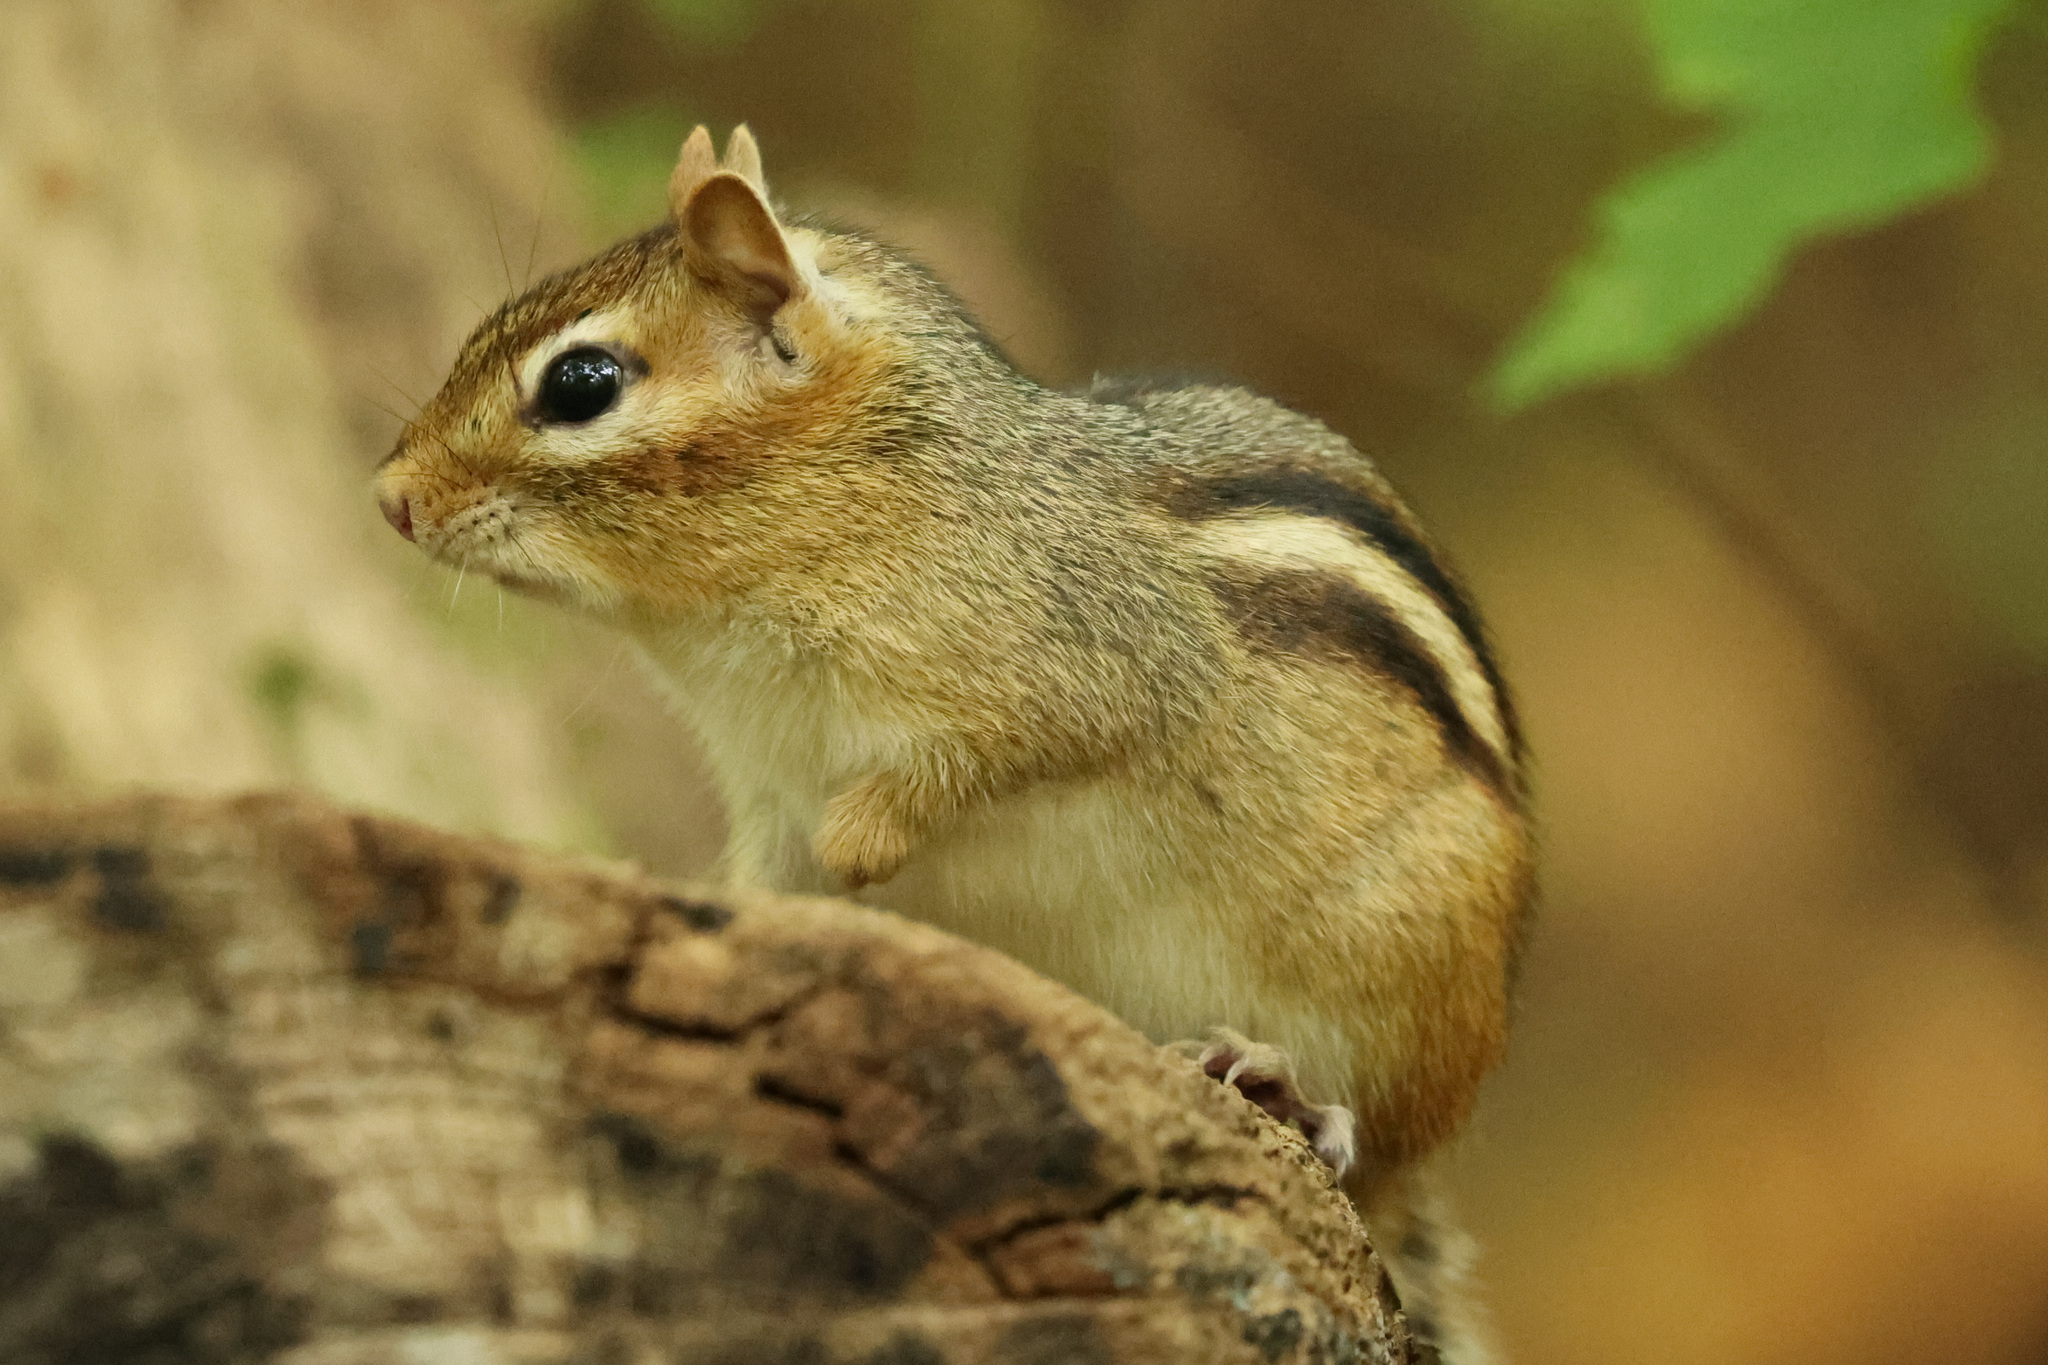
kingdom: Animalia
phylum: Chordata
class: Mammalia
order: Rodentia
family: Sciuridae
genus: Tamias
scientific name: Tamias striatus
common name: Eastern chipmunk
